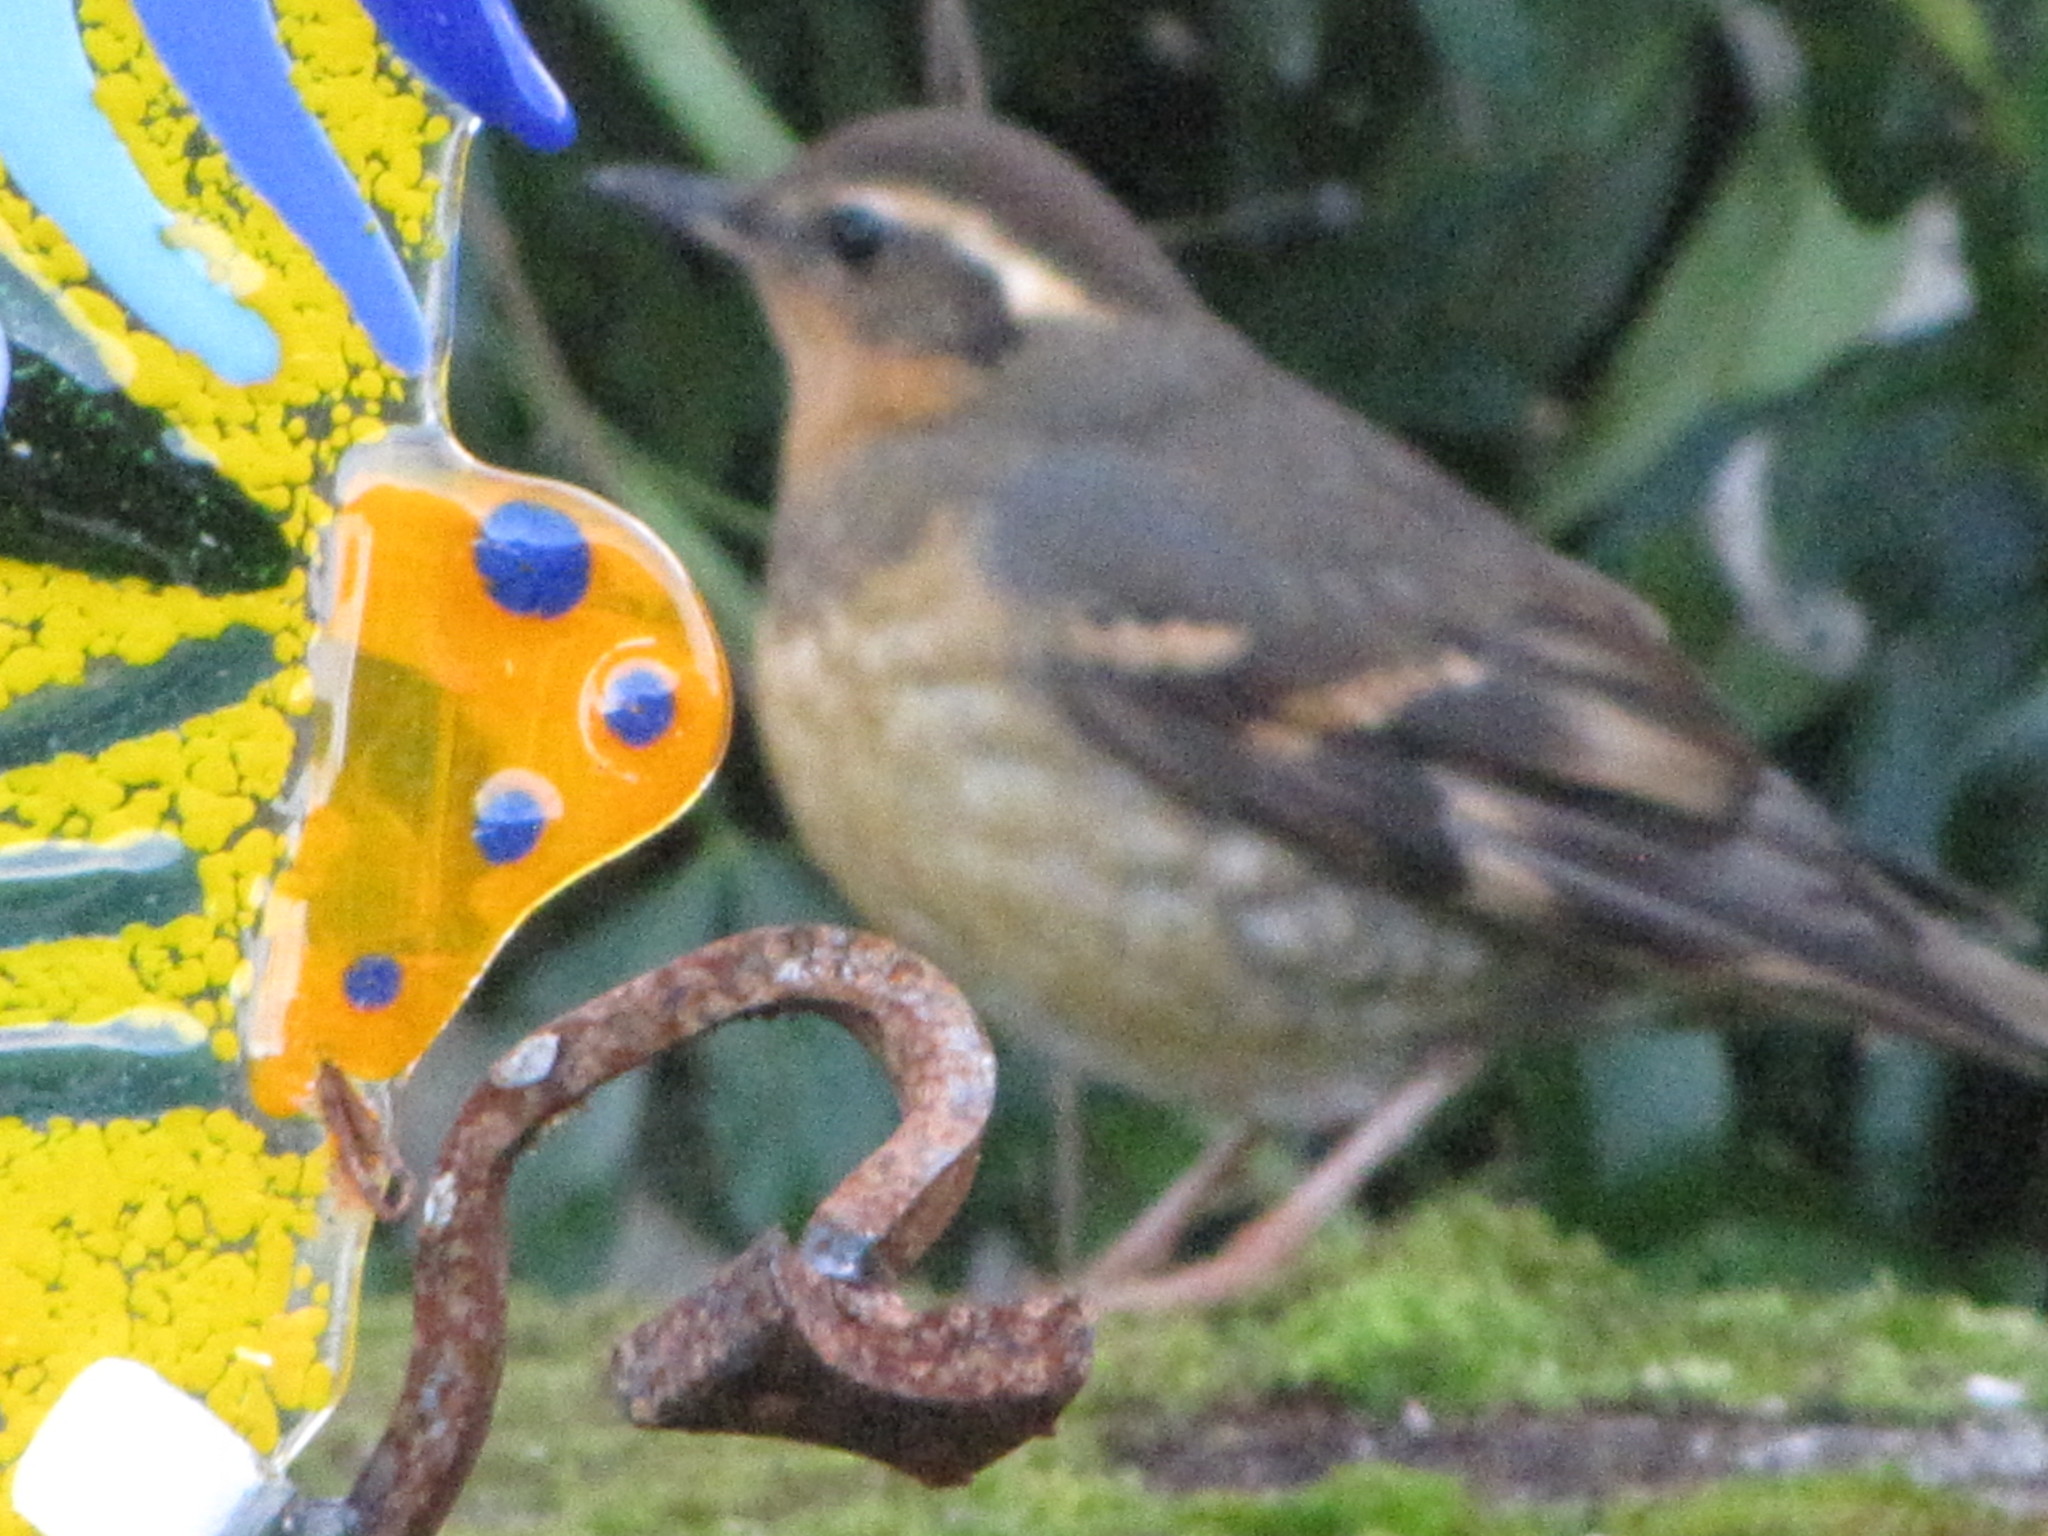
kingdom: Animalia
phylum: Chordata
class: Aves
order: Passeriformes
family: Turdidae
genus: Ixoreus
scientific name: Ixoreus naevius
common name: Varied thrush
